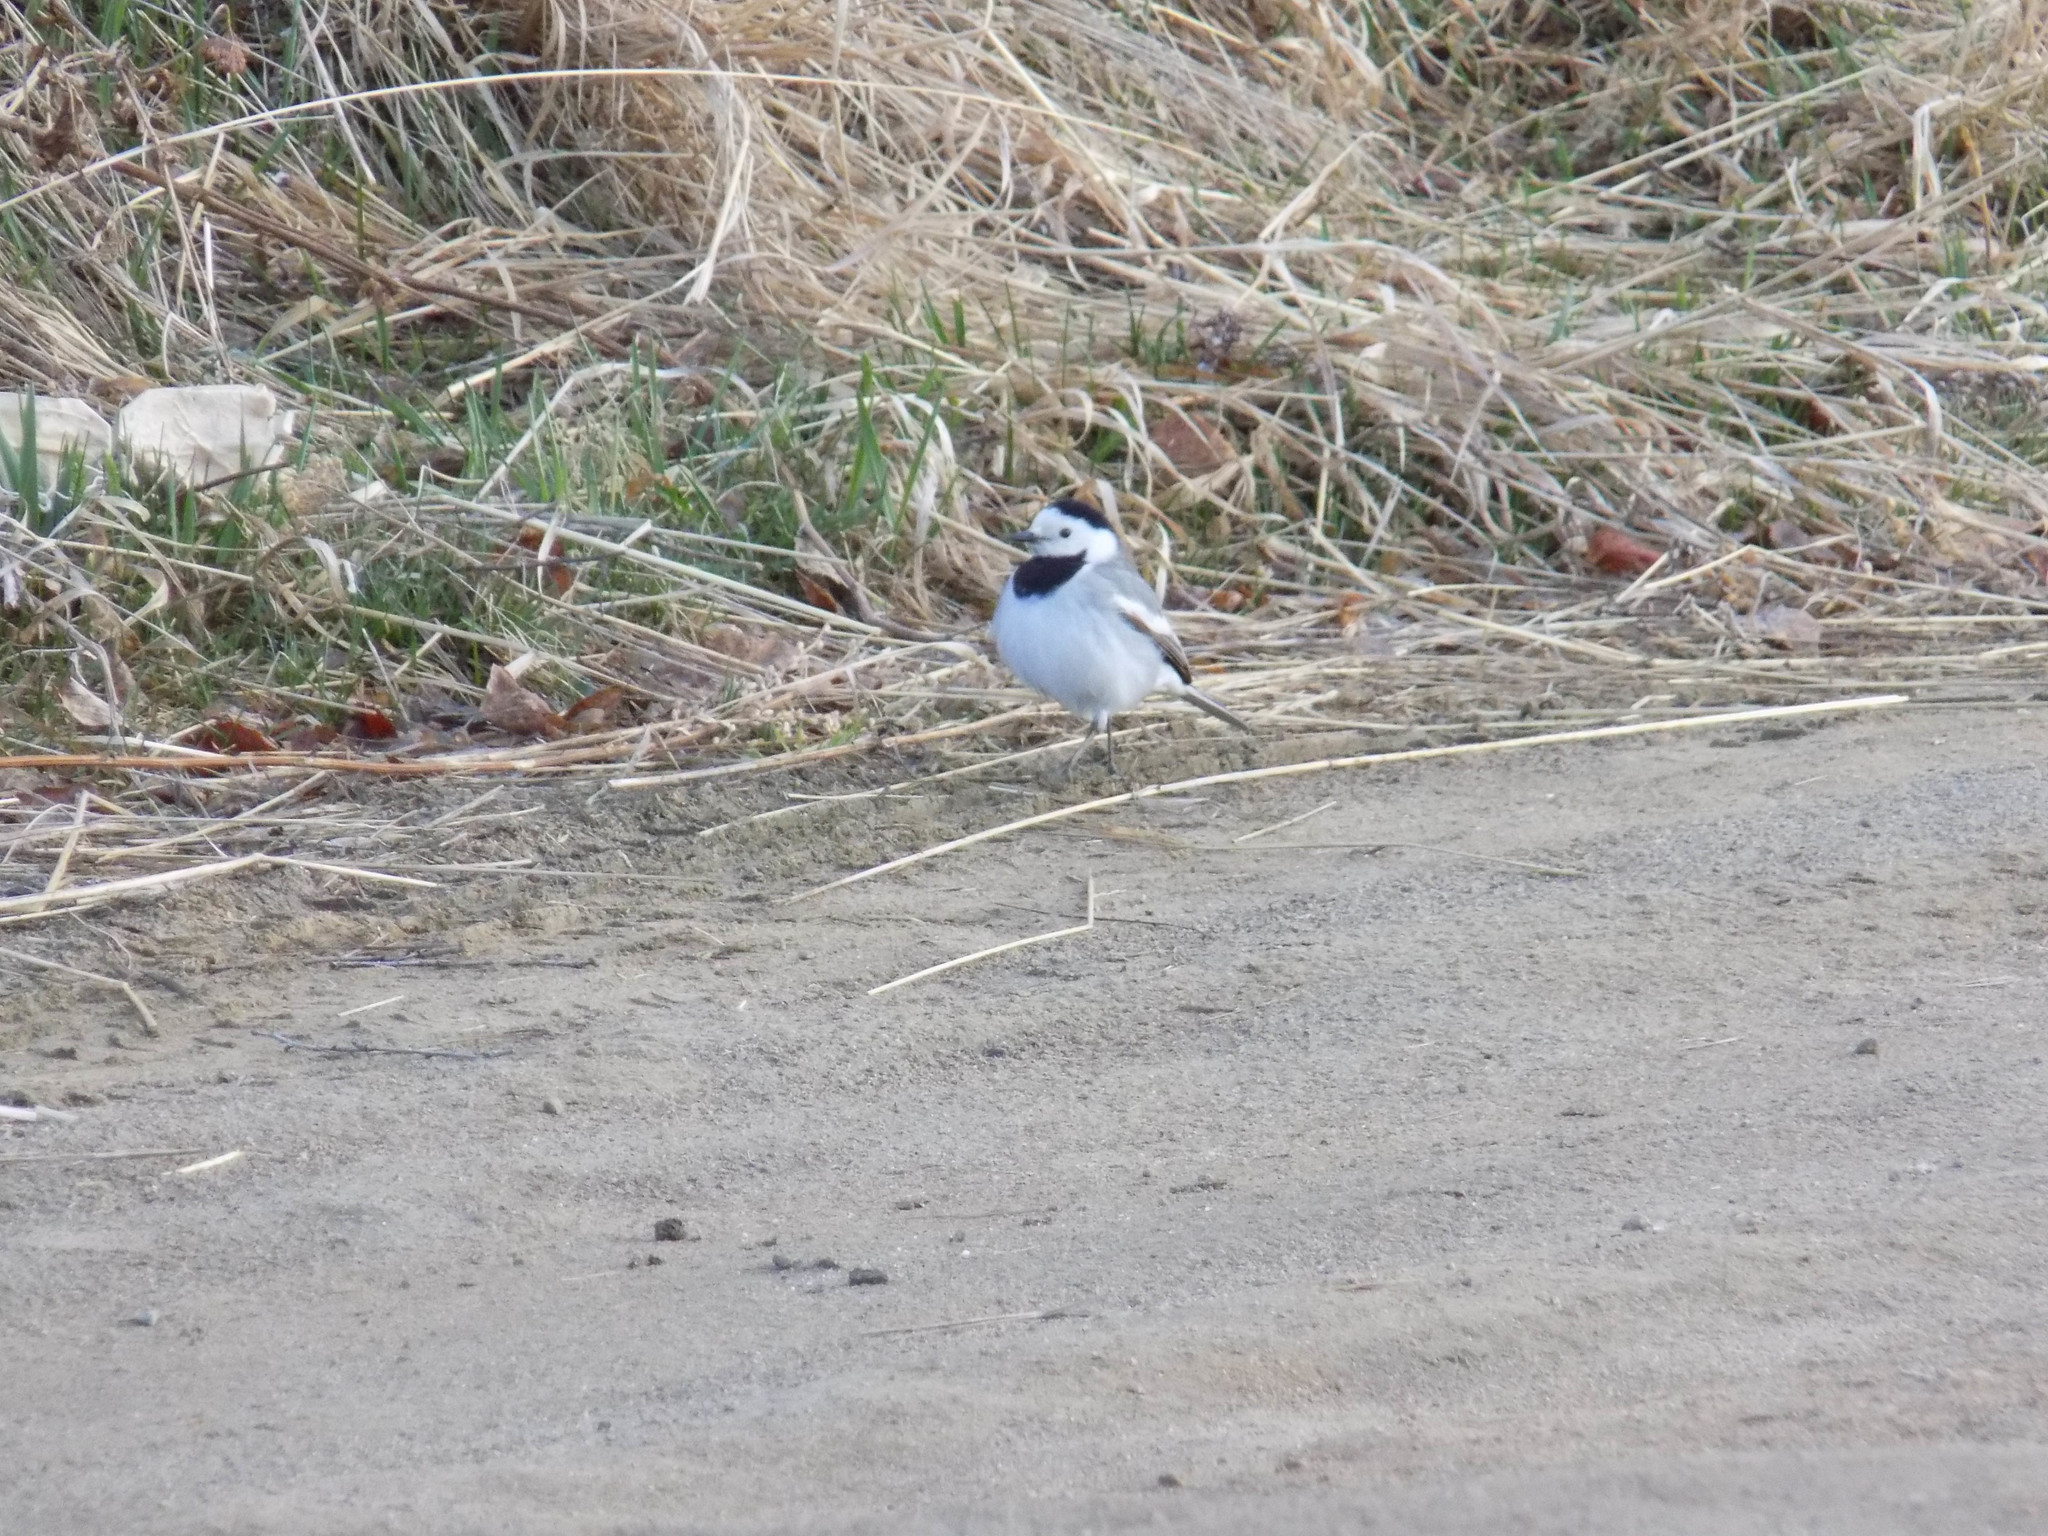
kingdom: Animalia
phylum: Chordata
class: Aves
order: Passeriformes
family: Motacillidae
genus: Motacilla
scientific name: Motacilla alba
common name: White wagtail
